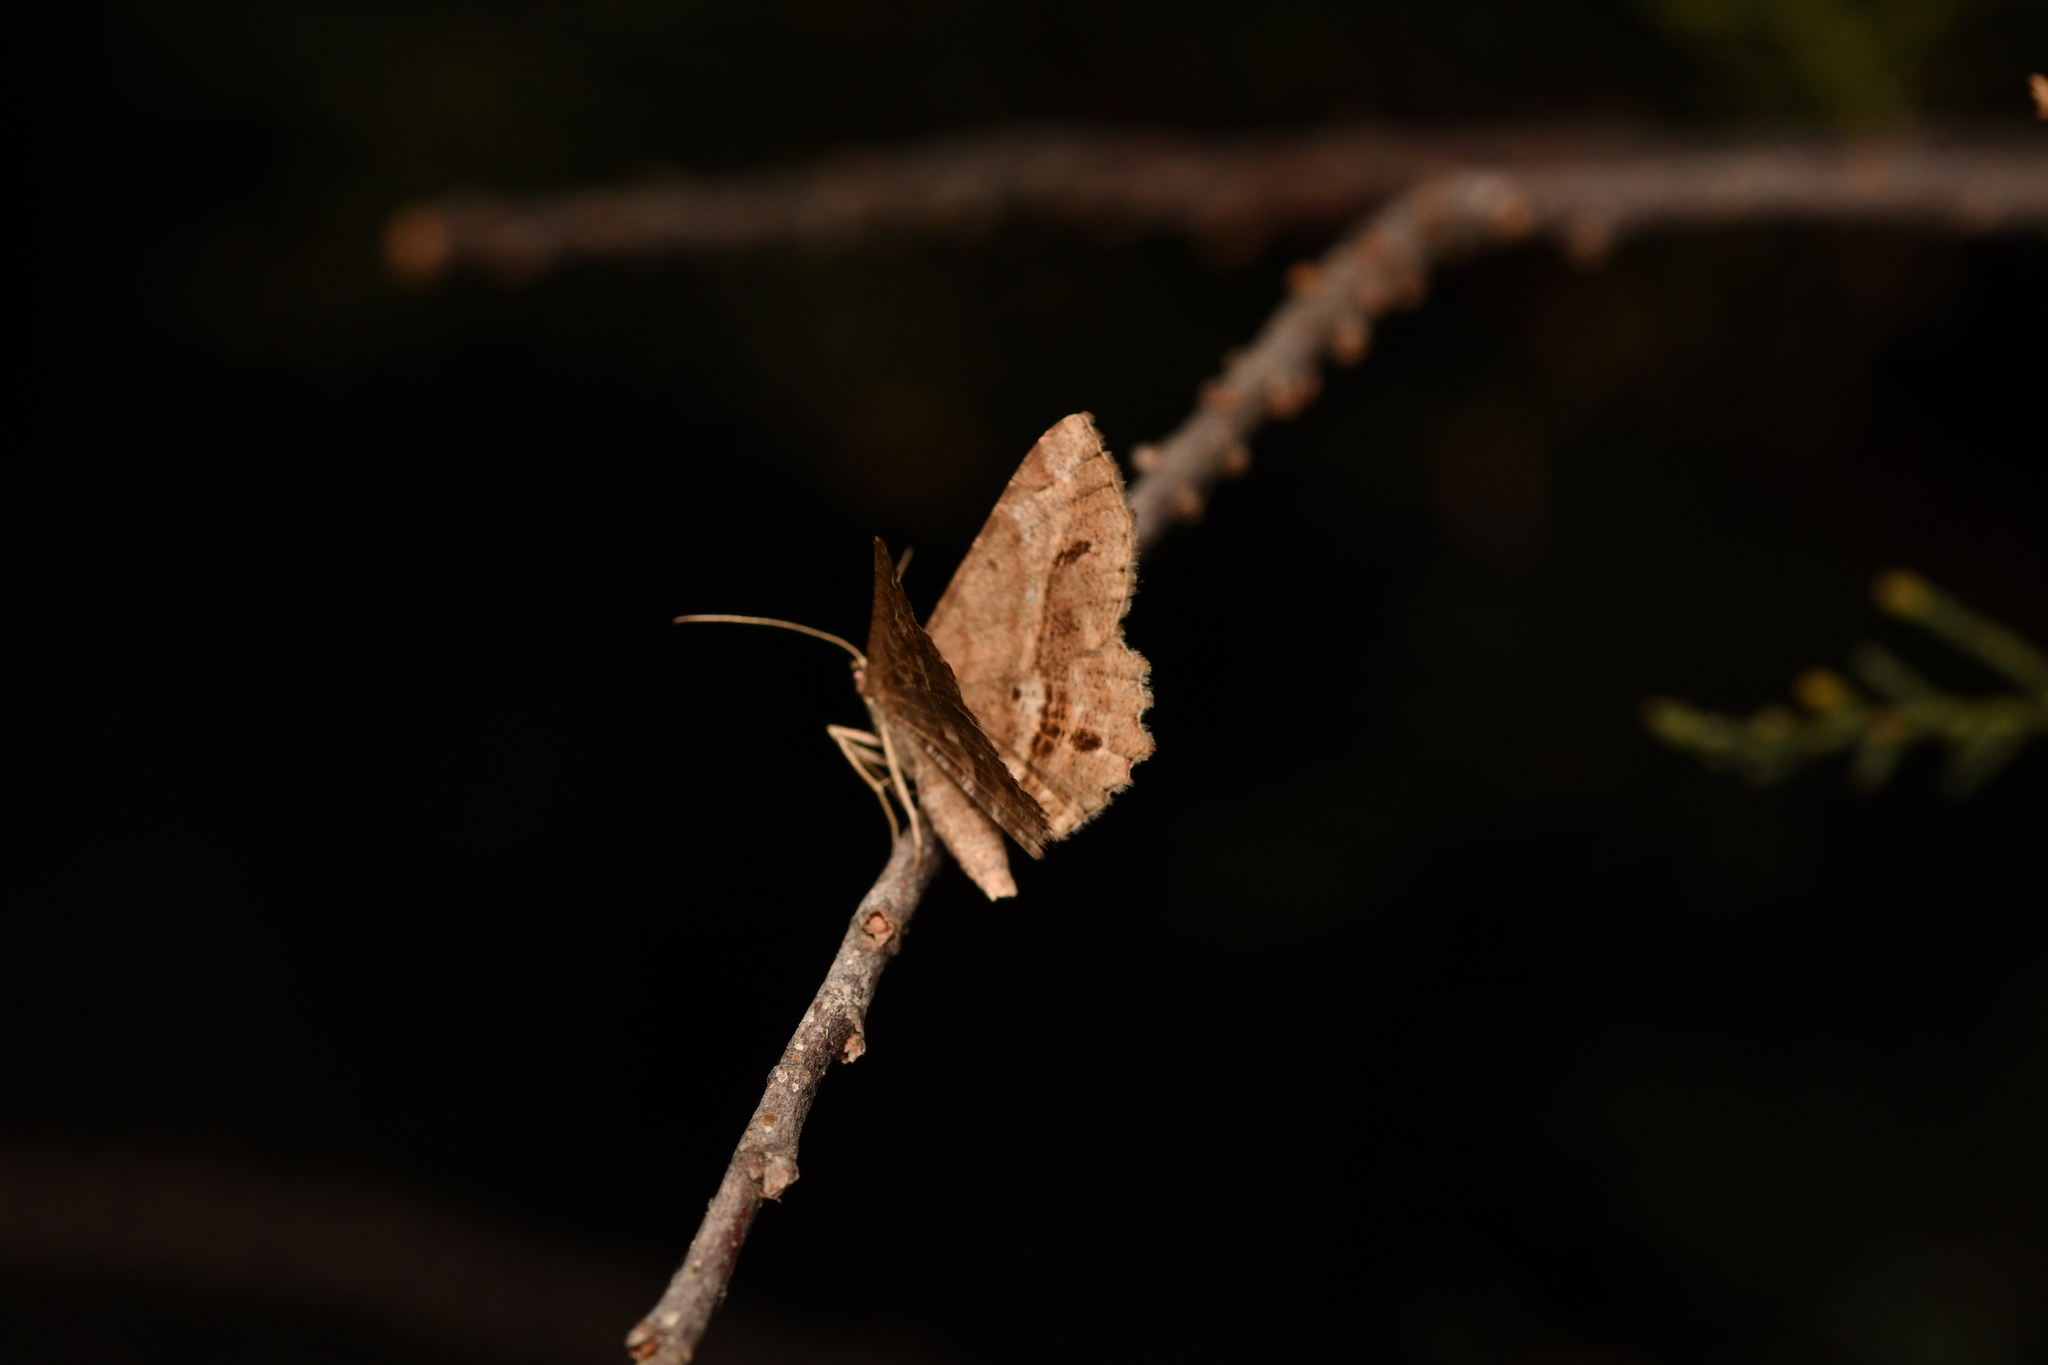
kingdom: Animalia
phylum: Arthropoda
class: Insecta
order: Lepidoptera
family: Geometridae
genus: Chiasmia
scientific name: Chiasmia aestimaria
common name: Tamarisk peacock
